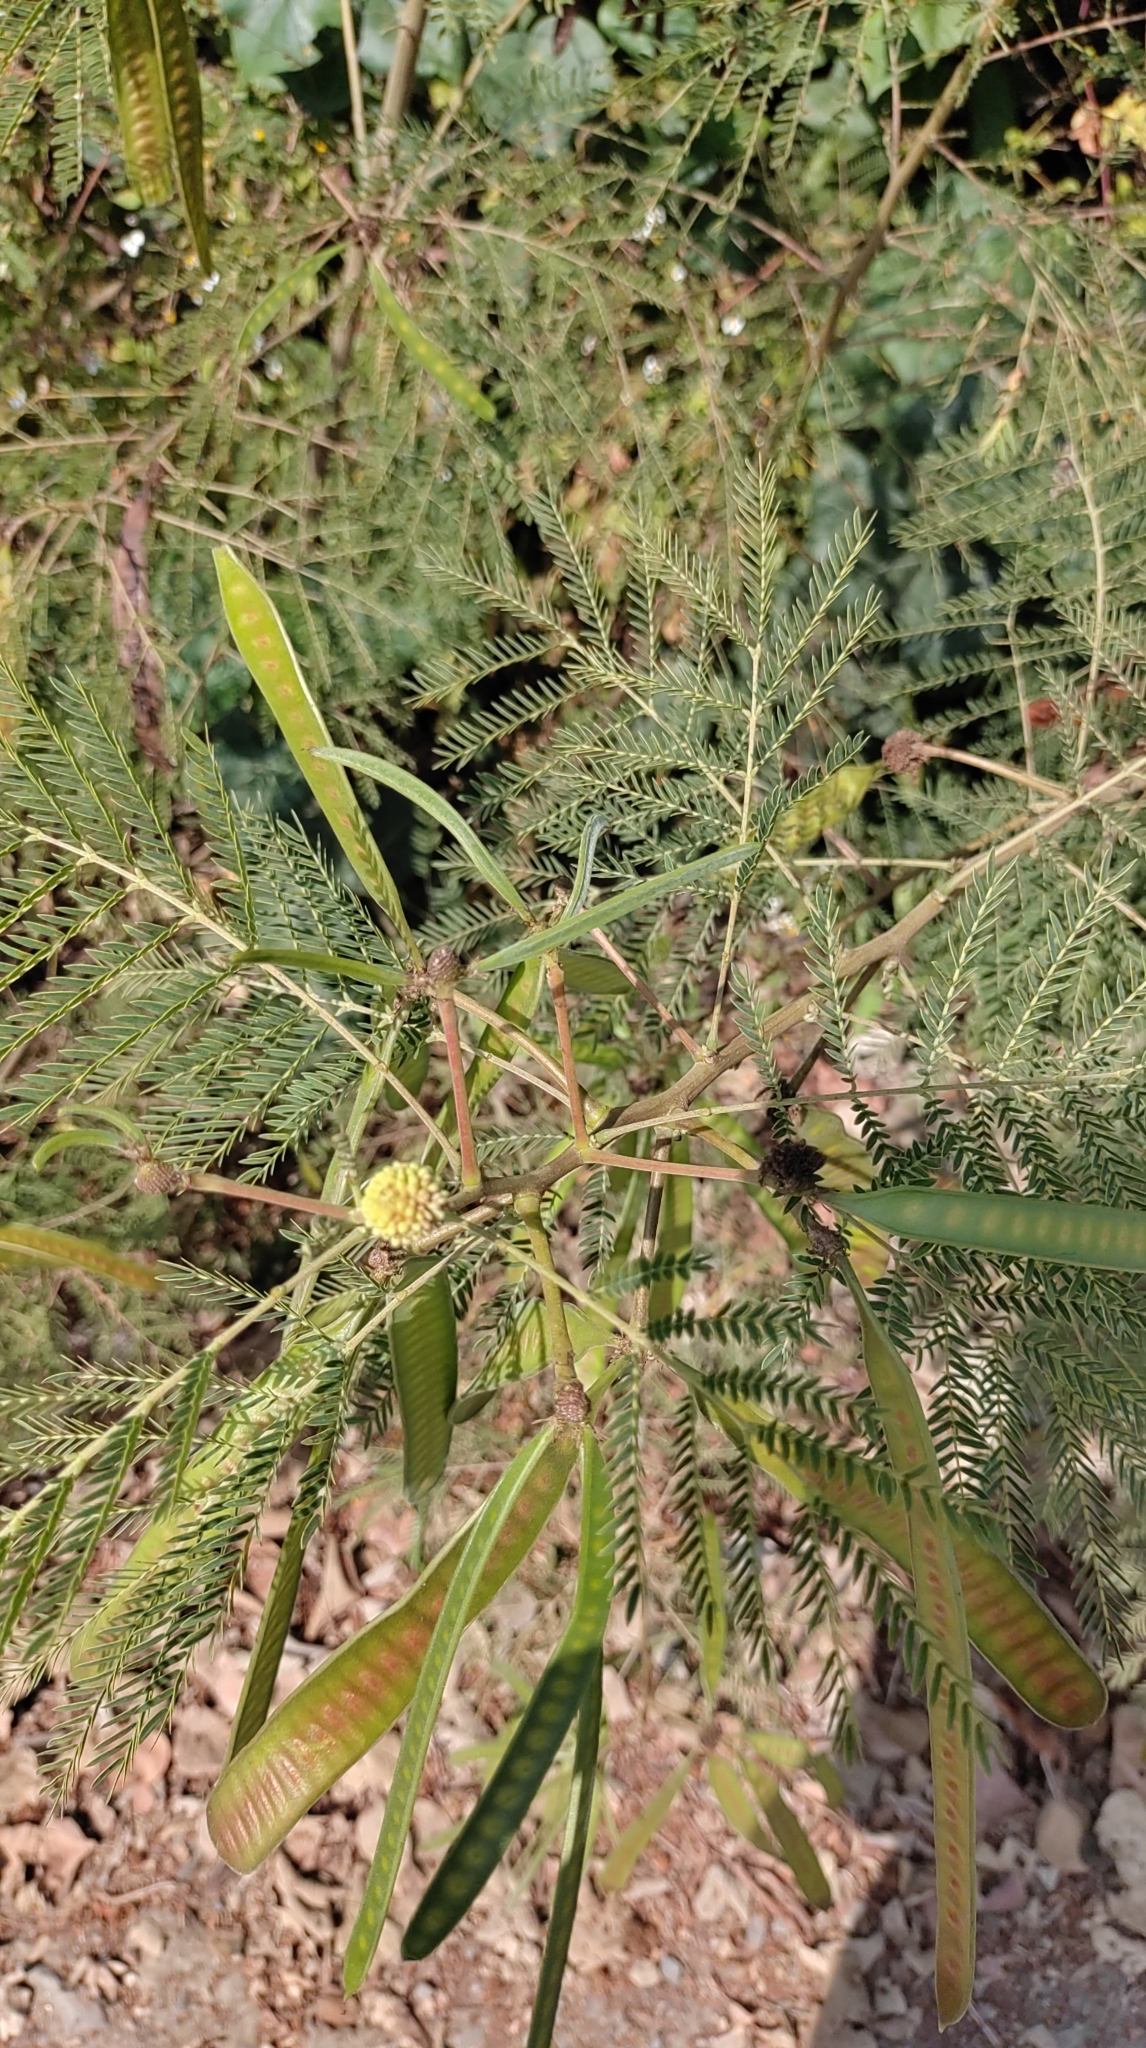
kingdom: Plantae
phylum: Tracheophyta
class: Magnoliopsida
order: Fabales
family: Fabaceae
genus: Leucaena
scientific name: Leucaena leucocephala
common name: White leadtree
